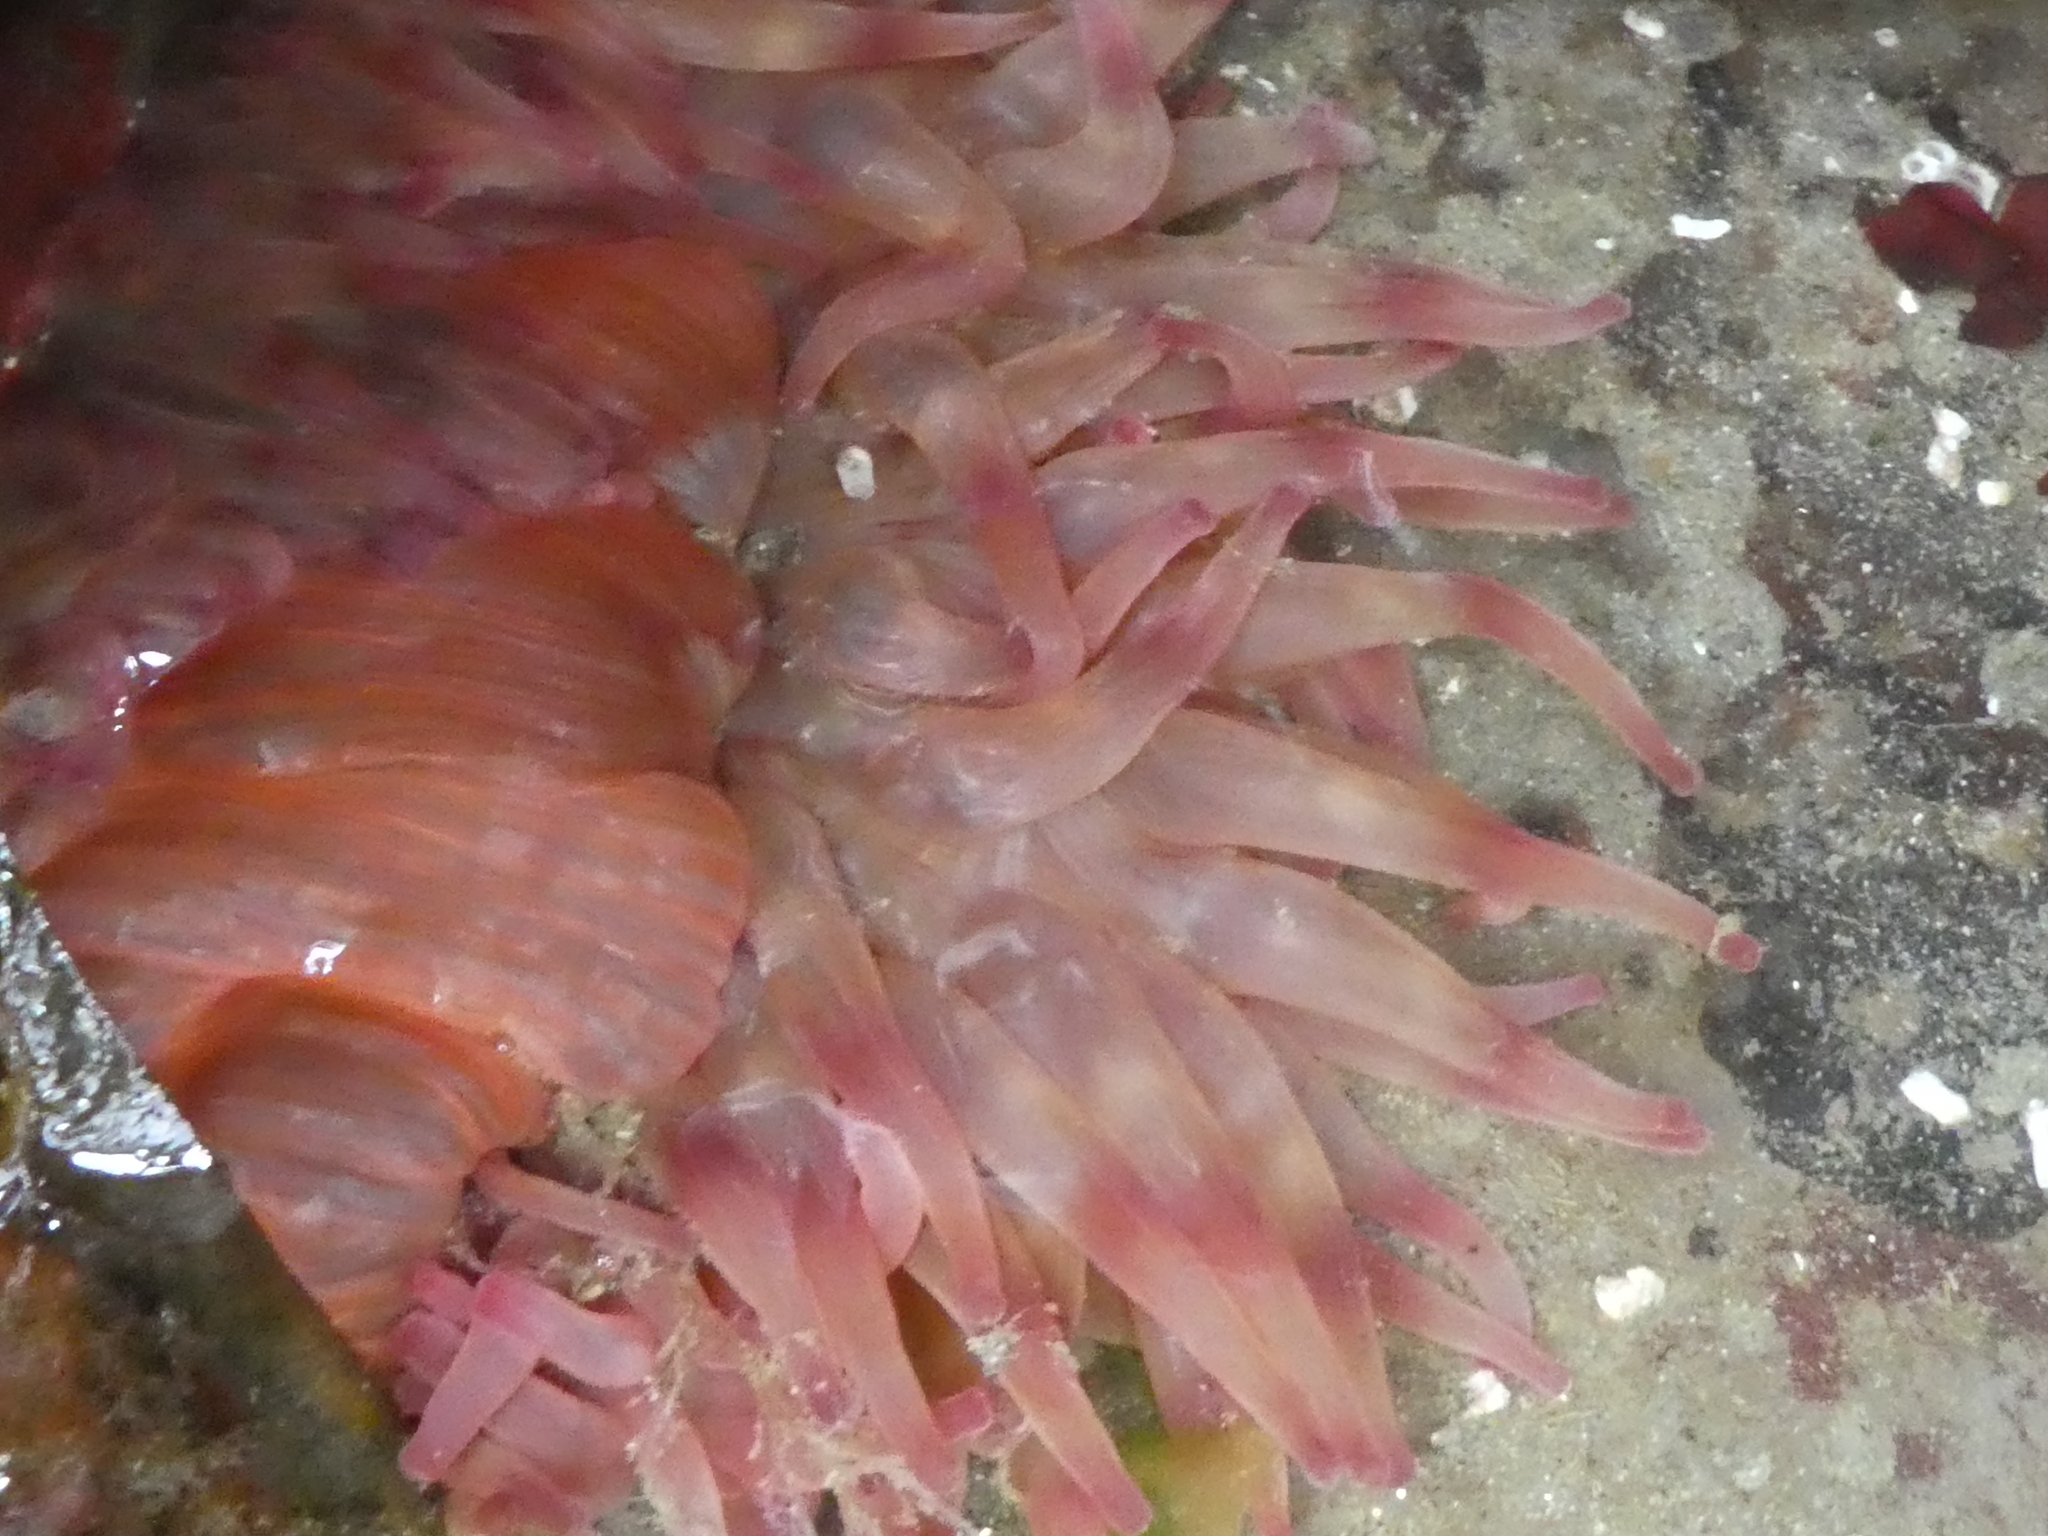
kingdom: Animalia
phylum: Cnidaria
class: Anthozoa
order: Actiniaria
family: Actiniidae
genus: Urticina
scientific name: Urticina grebelnyi
